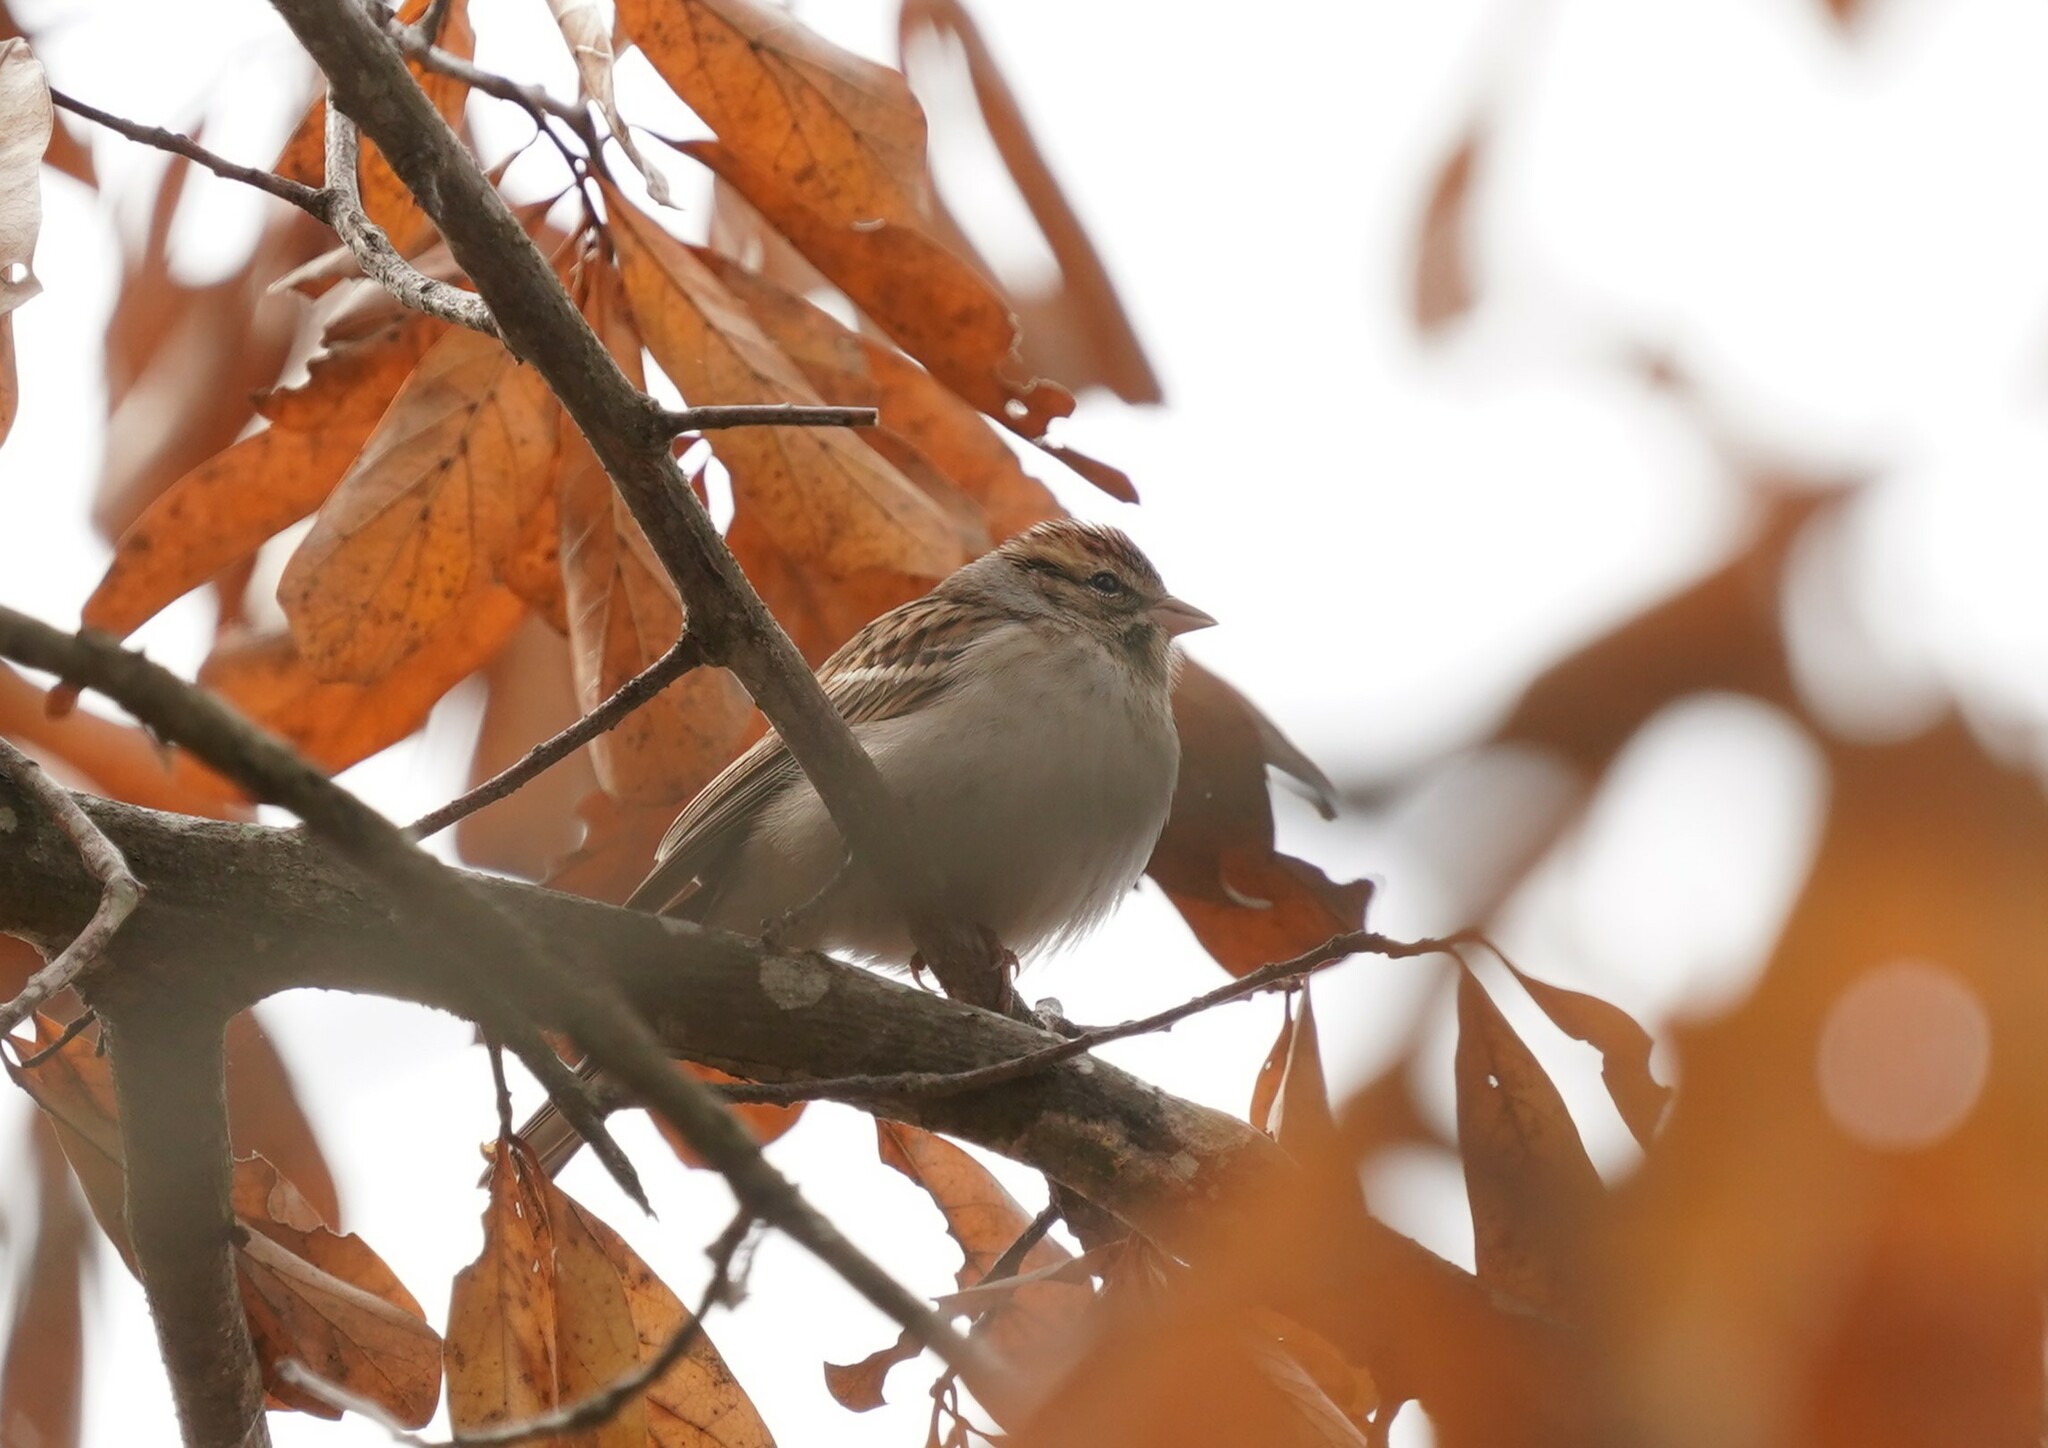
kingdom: Animalia
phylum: Chordata
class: Aves
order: Passeriformes
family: Passerellidae
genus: Spizella
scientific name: Spizella passerina
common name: Chipping sparrow
